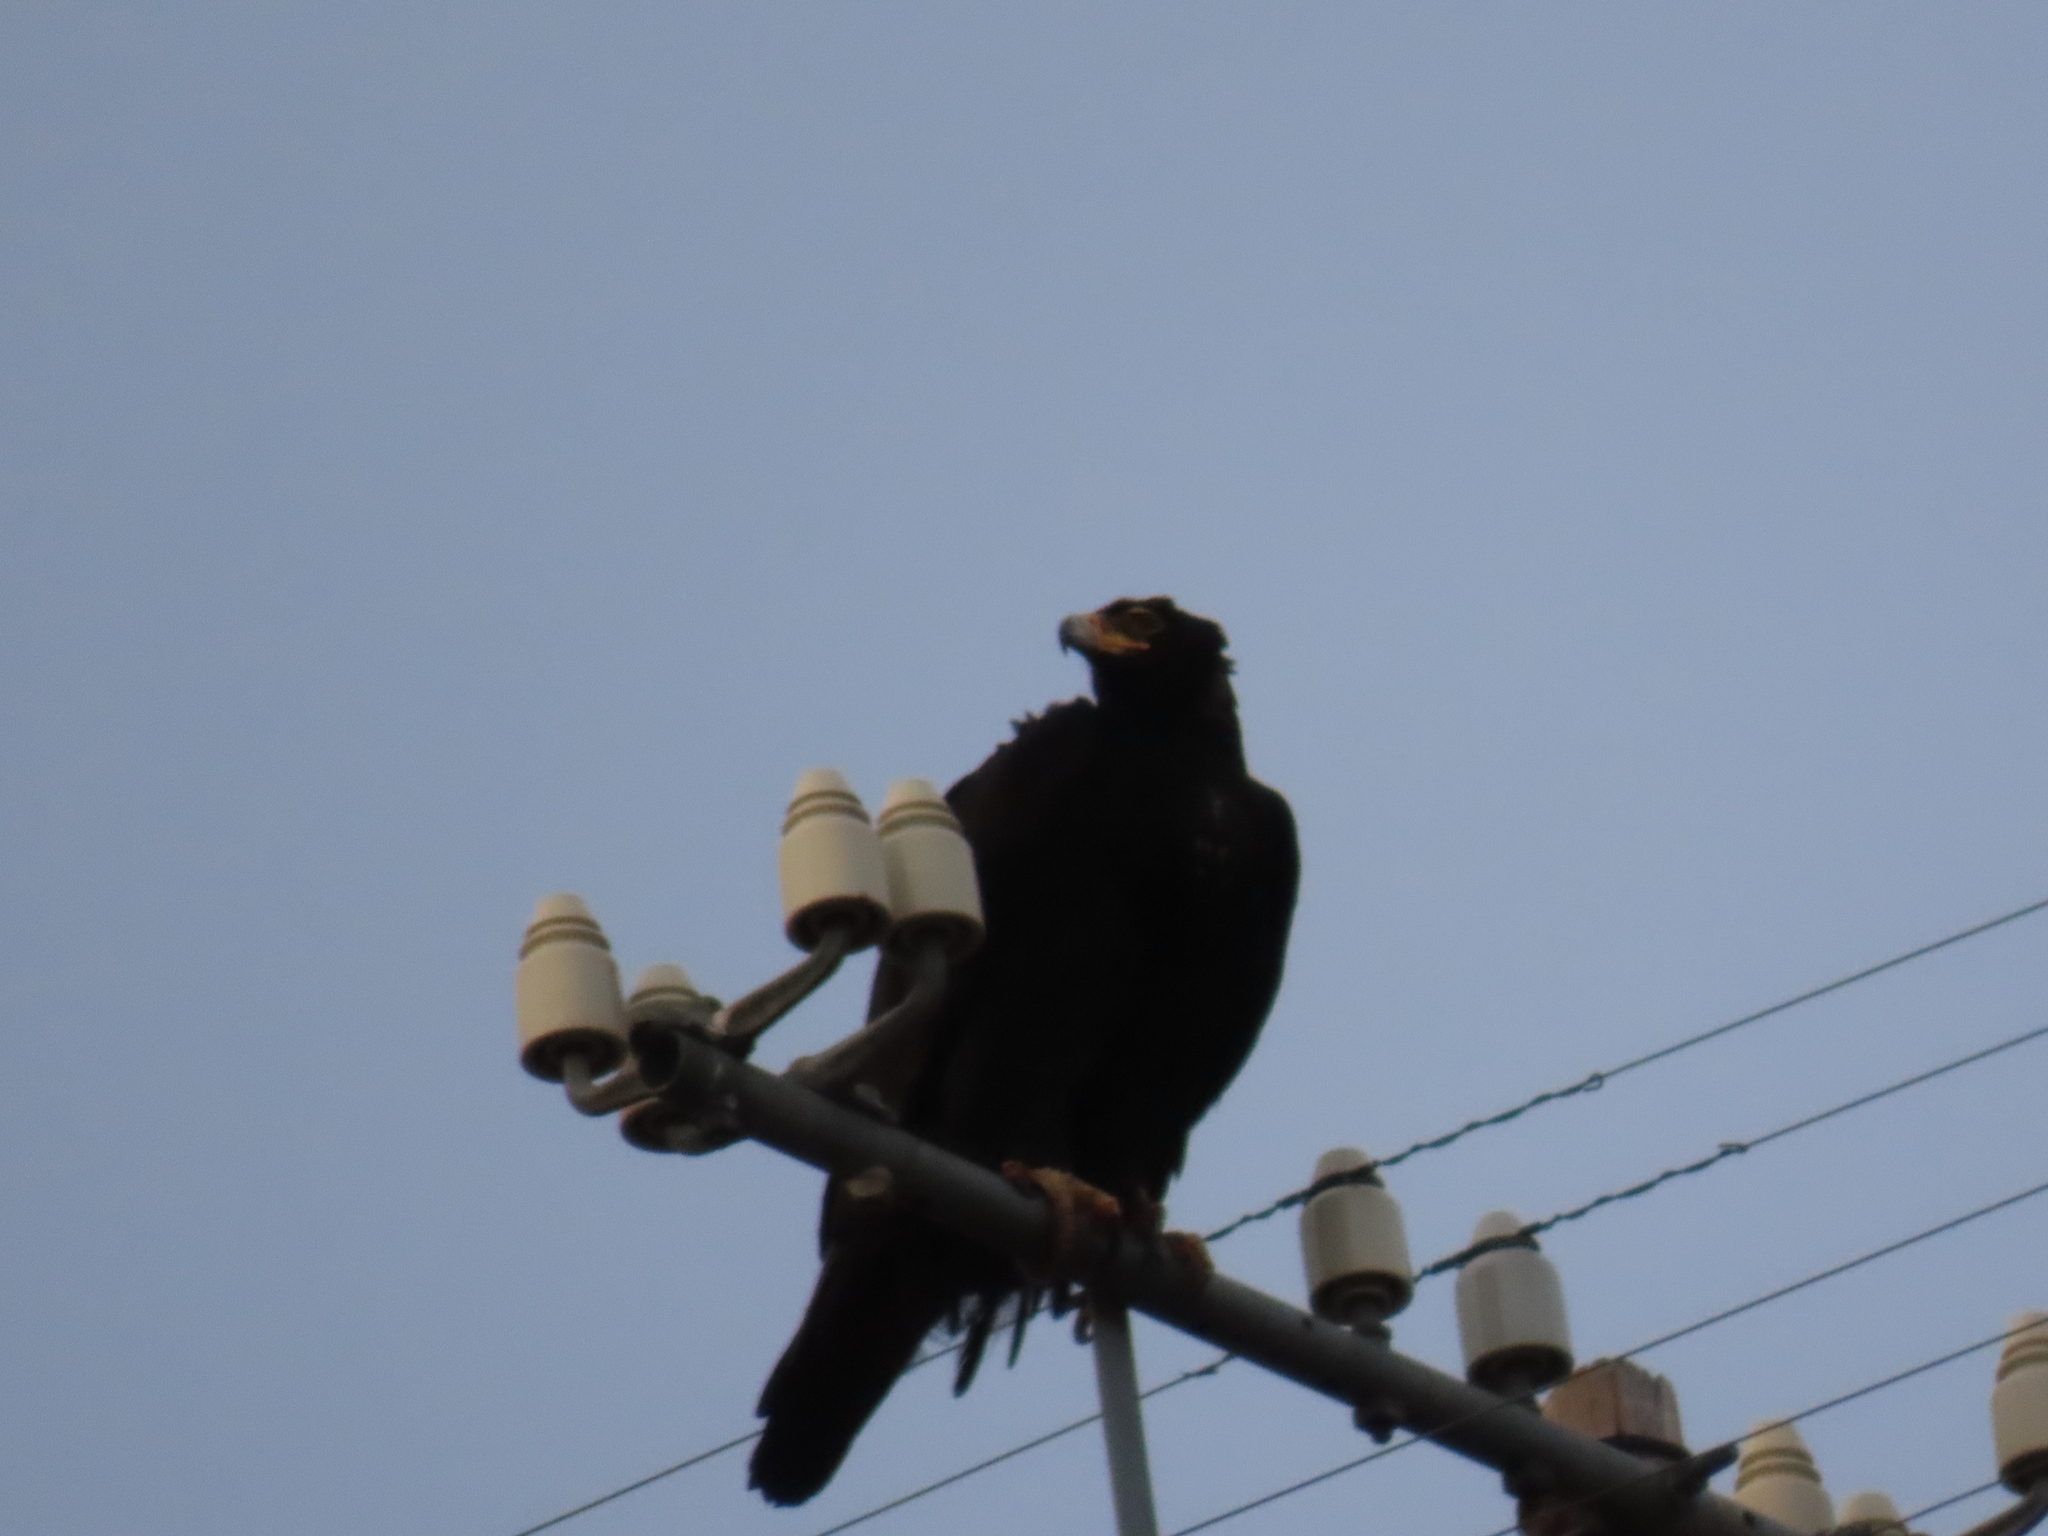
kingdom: Animalia
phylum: Chordata
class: Aves
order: Accipitriformes
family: Accipitridae
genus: Aquila
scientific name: Aquila verreauxii
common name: Verreaux's eagle
